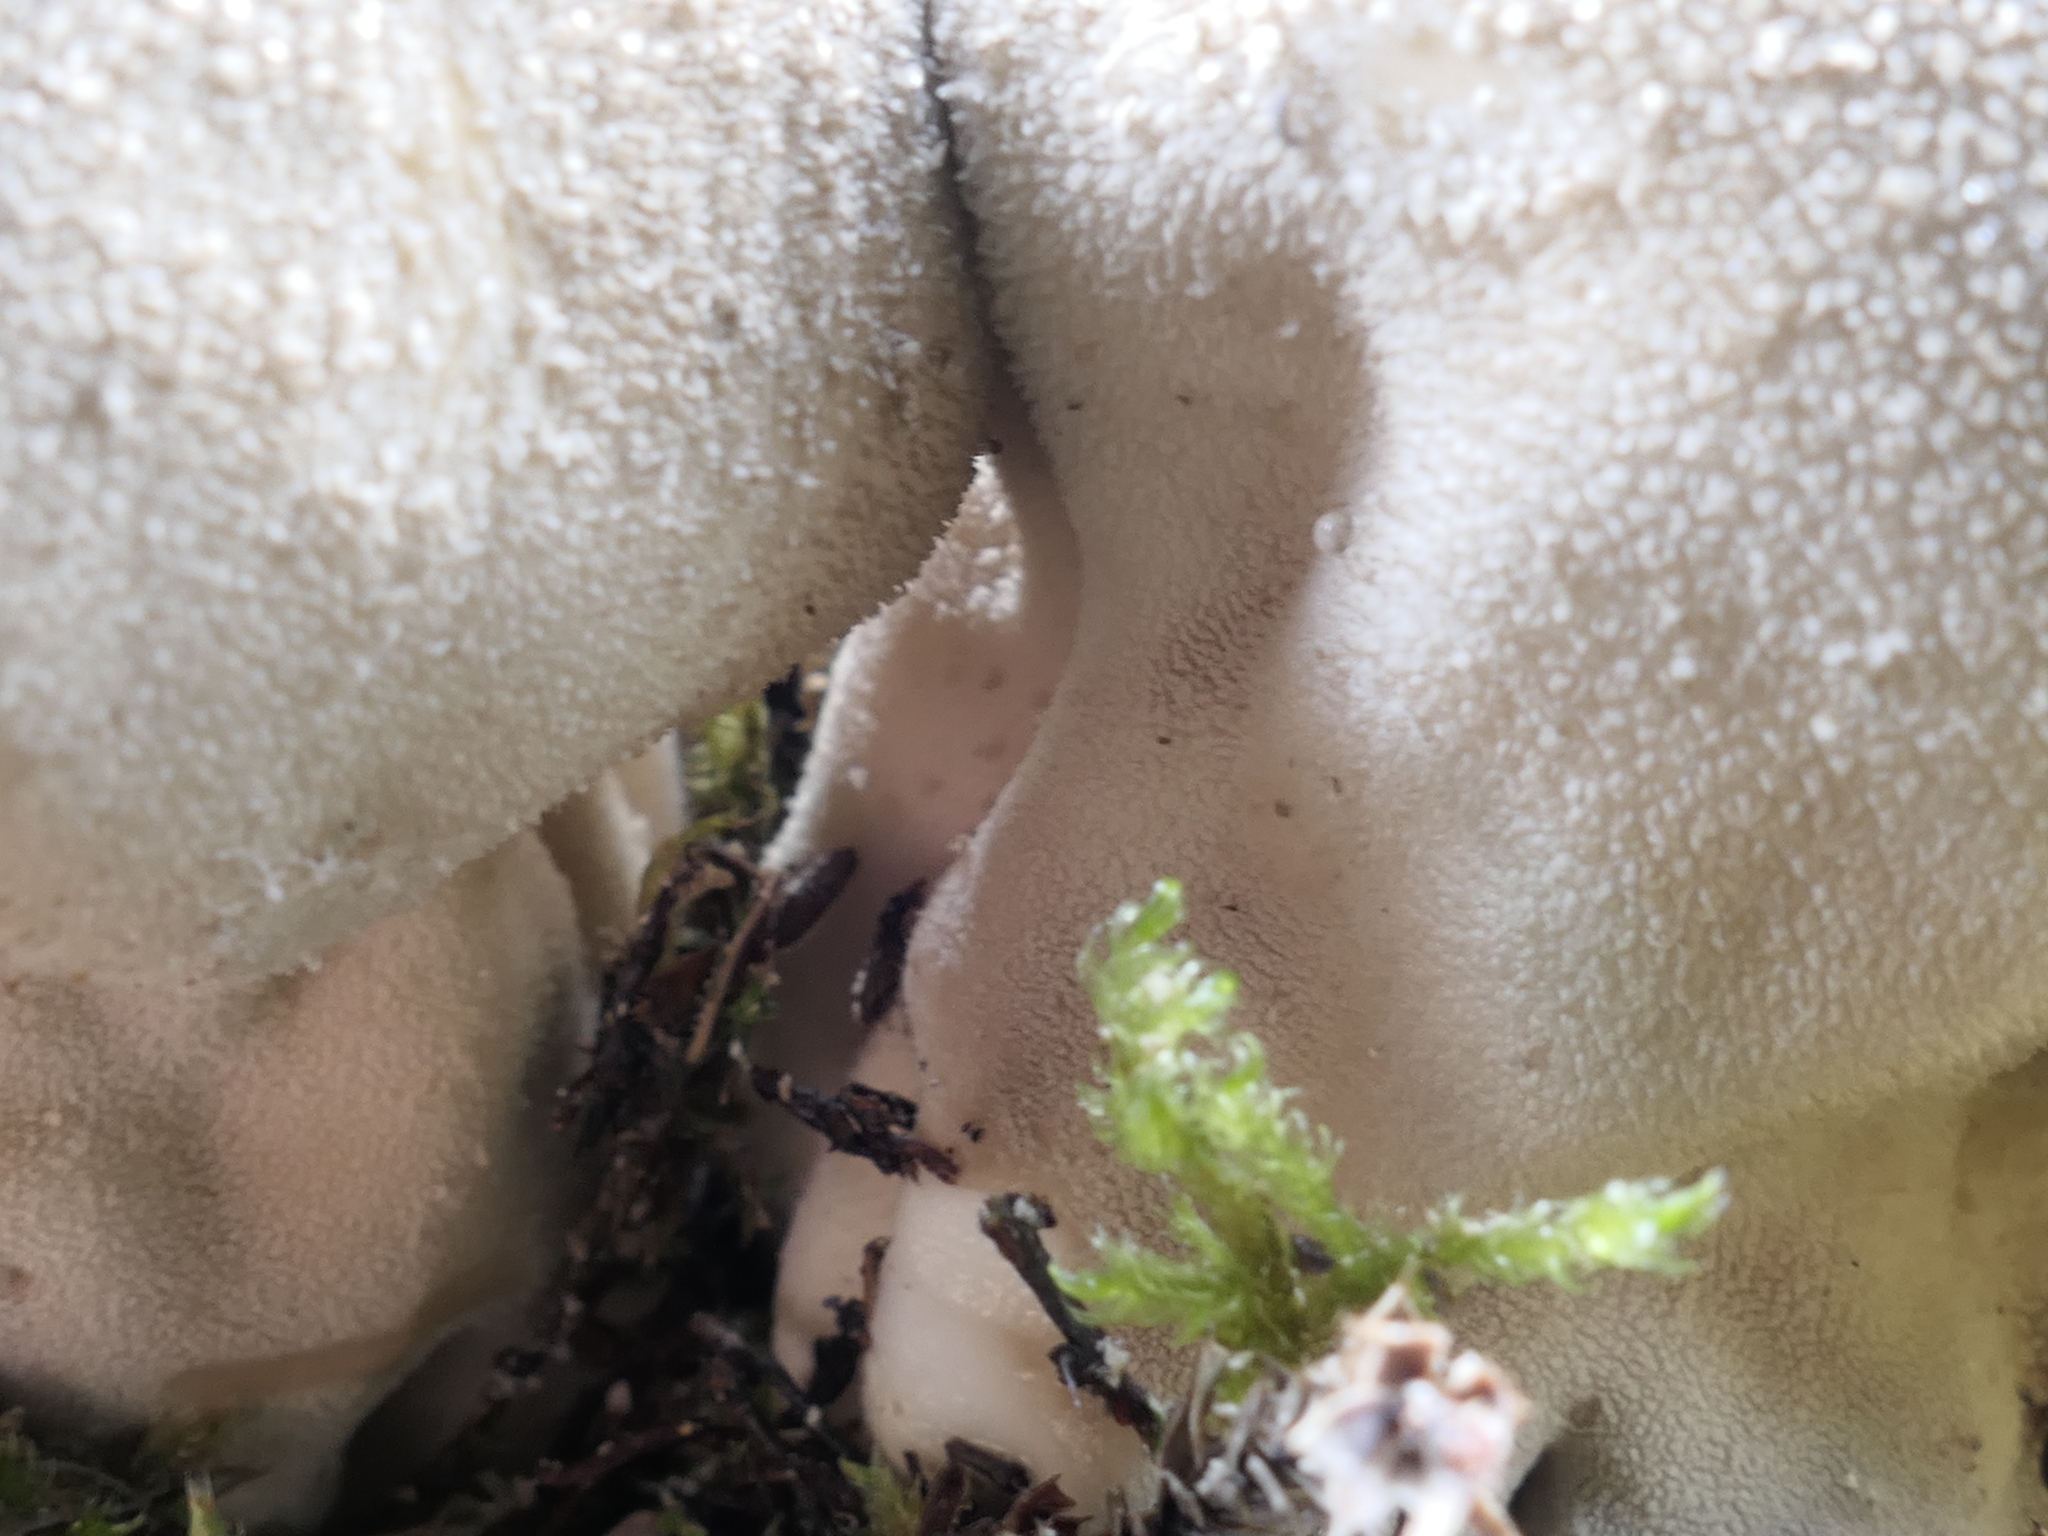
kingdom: Fungi
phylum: Basidiomycota
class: Agaricomycetes
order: Agaricales
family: Lycoperdaceae
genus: Lycoperdon
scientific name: Lycoperdon pratense
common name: Meadow puffball
